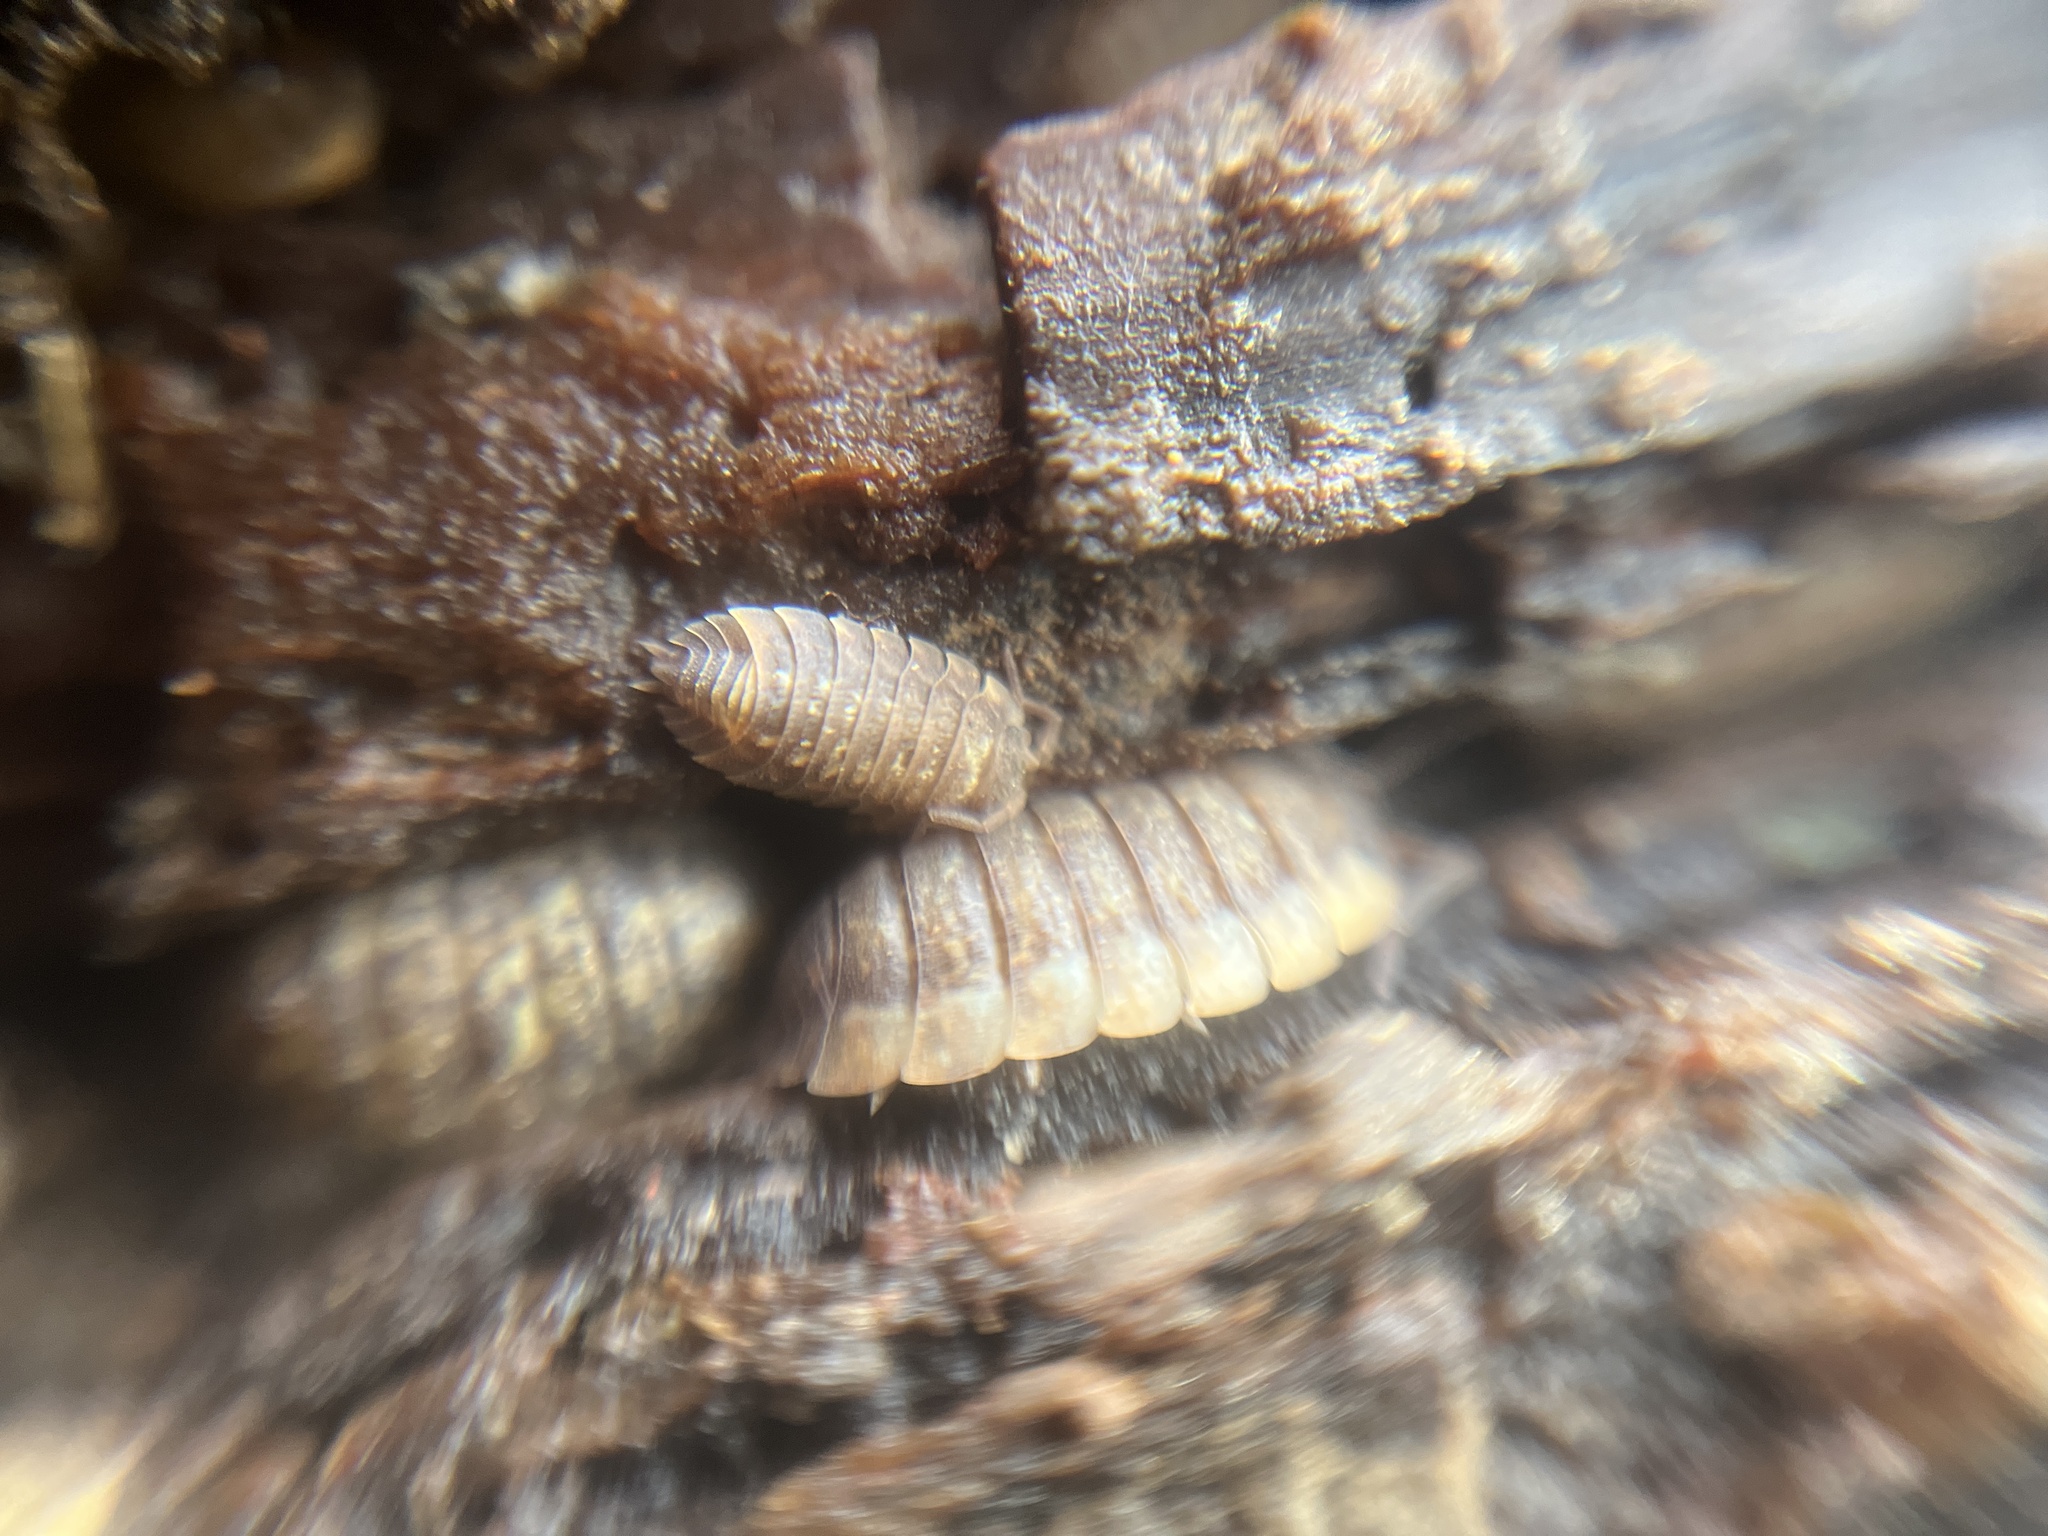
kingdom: Animalia
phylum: Arthropoda
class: Malacostraca
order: Isopoda
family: Porcellionidae
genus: Porcellio
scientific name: Porcellio scaber
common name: Common rough woodlouse
